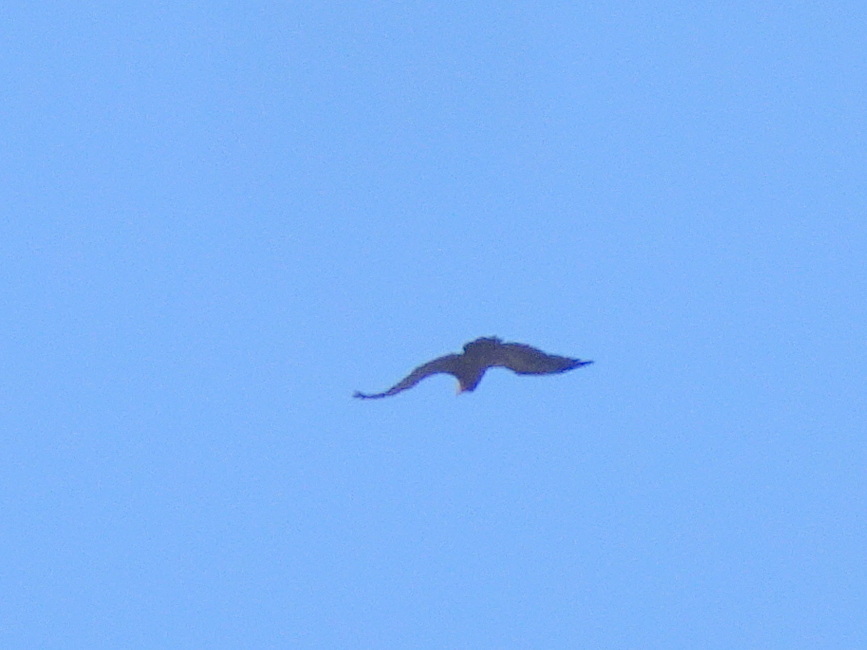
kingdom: Animalia
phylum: Chordata
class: Aves
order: Accipitriformes
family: Accipitridae
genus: Gyps
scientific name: Gyps fulvus
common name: Griffon vulture
